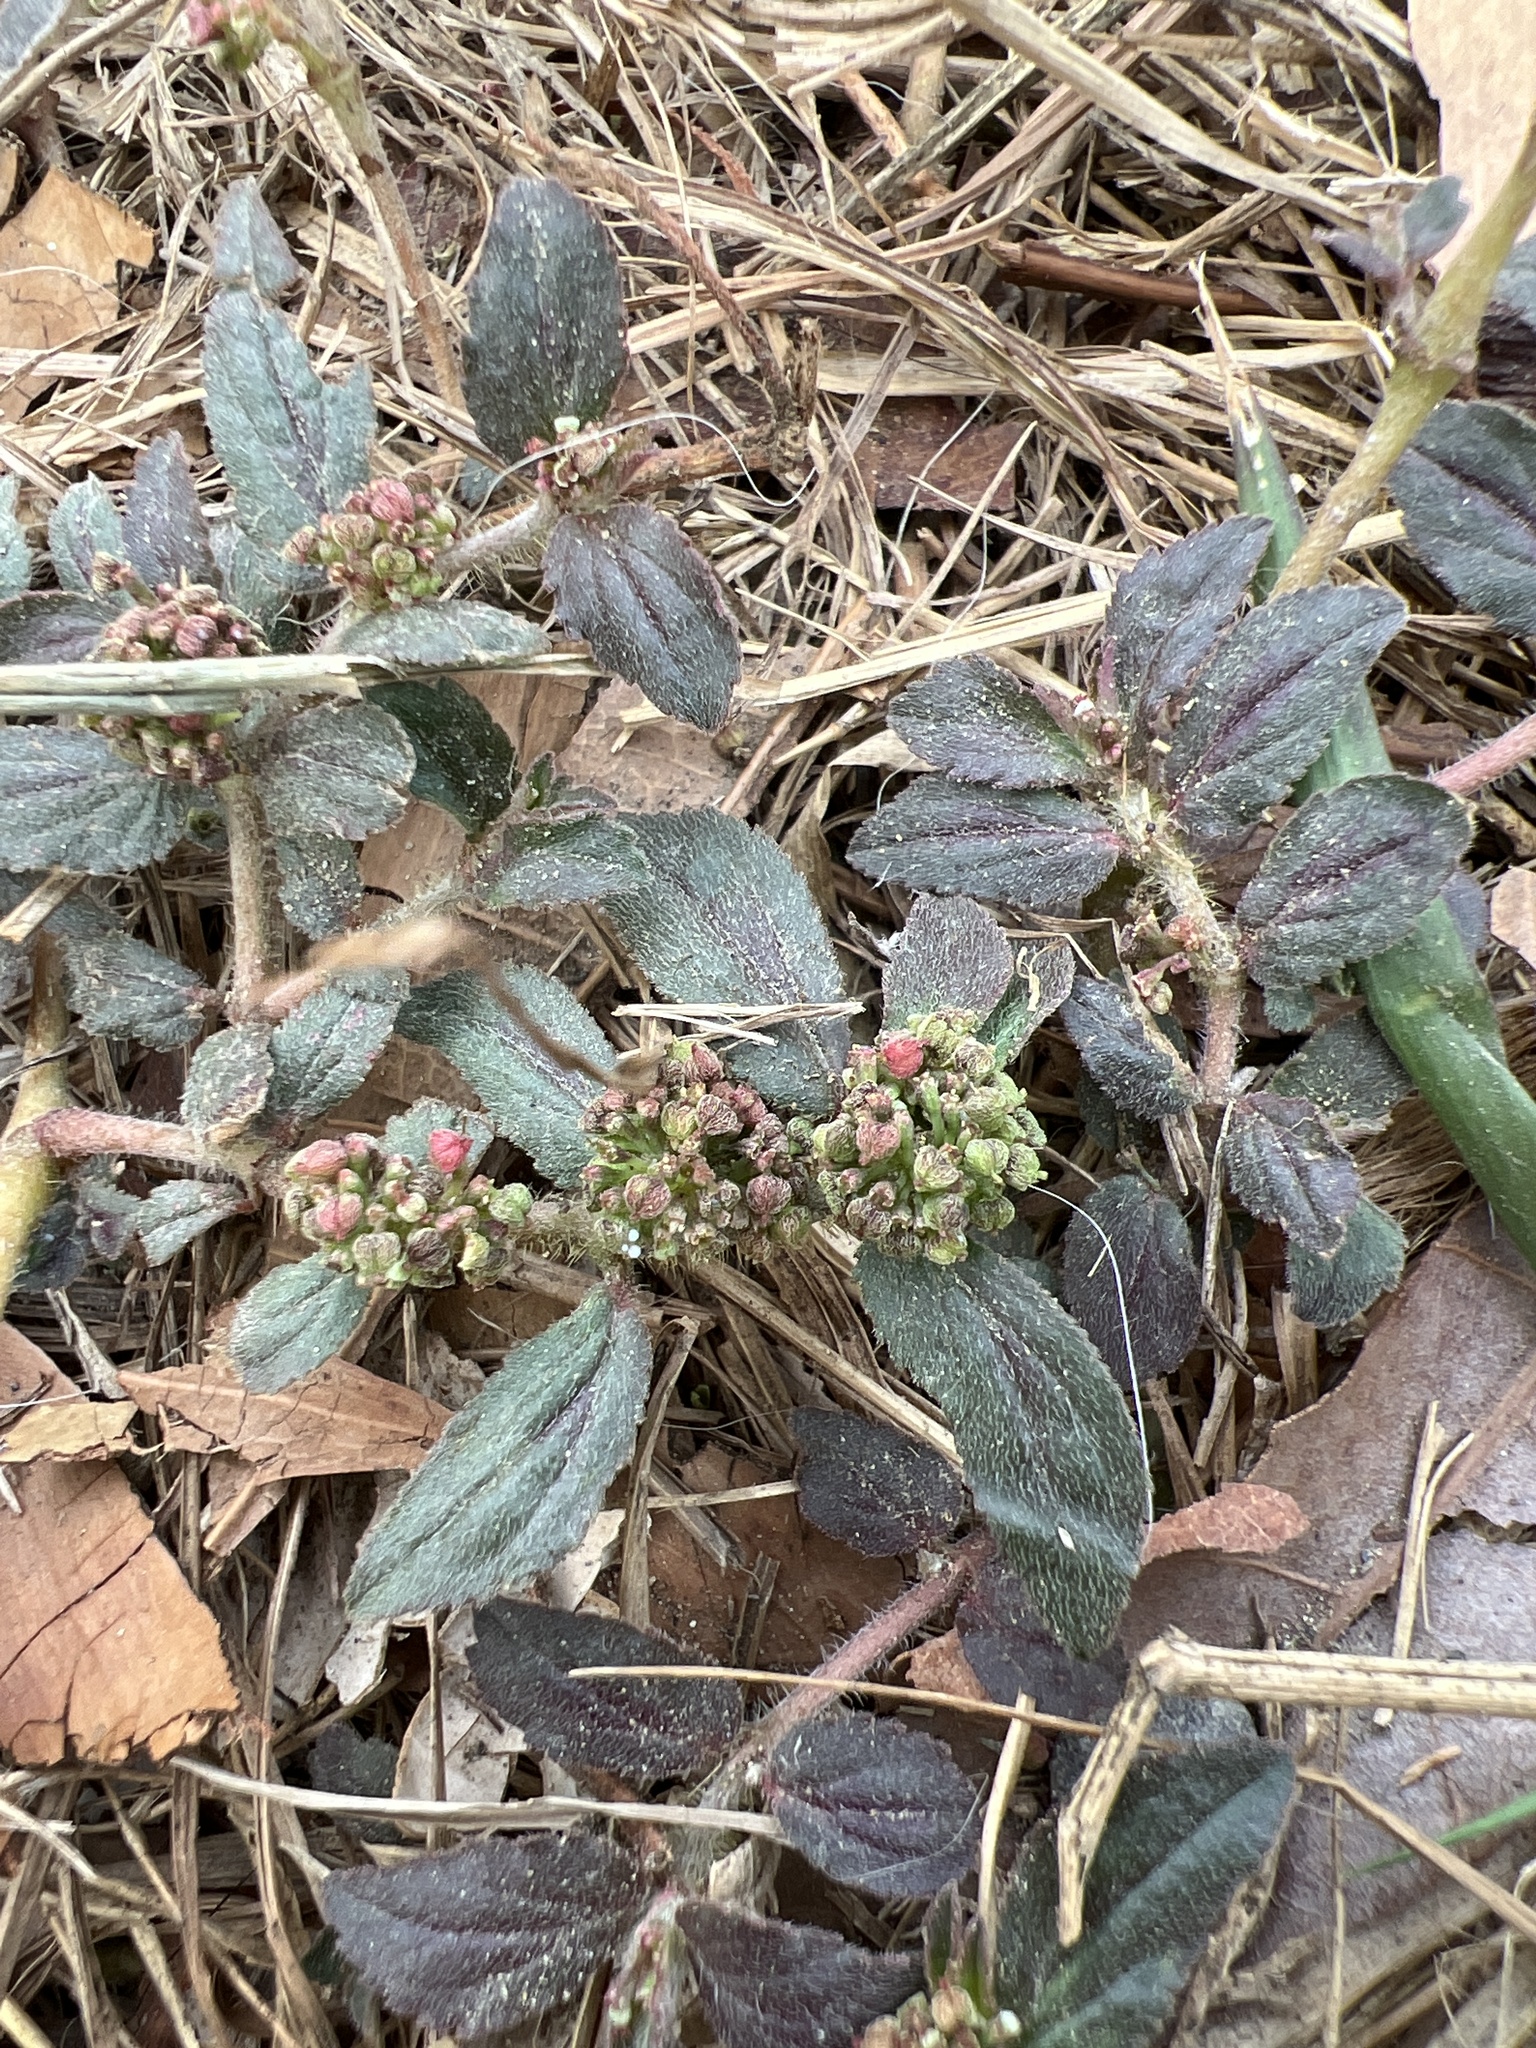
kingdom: Plantae
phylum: Tracheophyta
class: Magnoliopsida
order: Malpighiales
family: Euphorbiaceae
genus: Euphorbia
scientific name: Euphorbia hirta
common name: Pillpod sandmat
